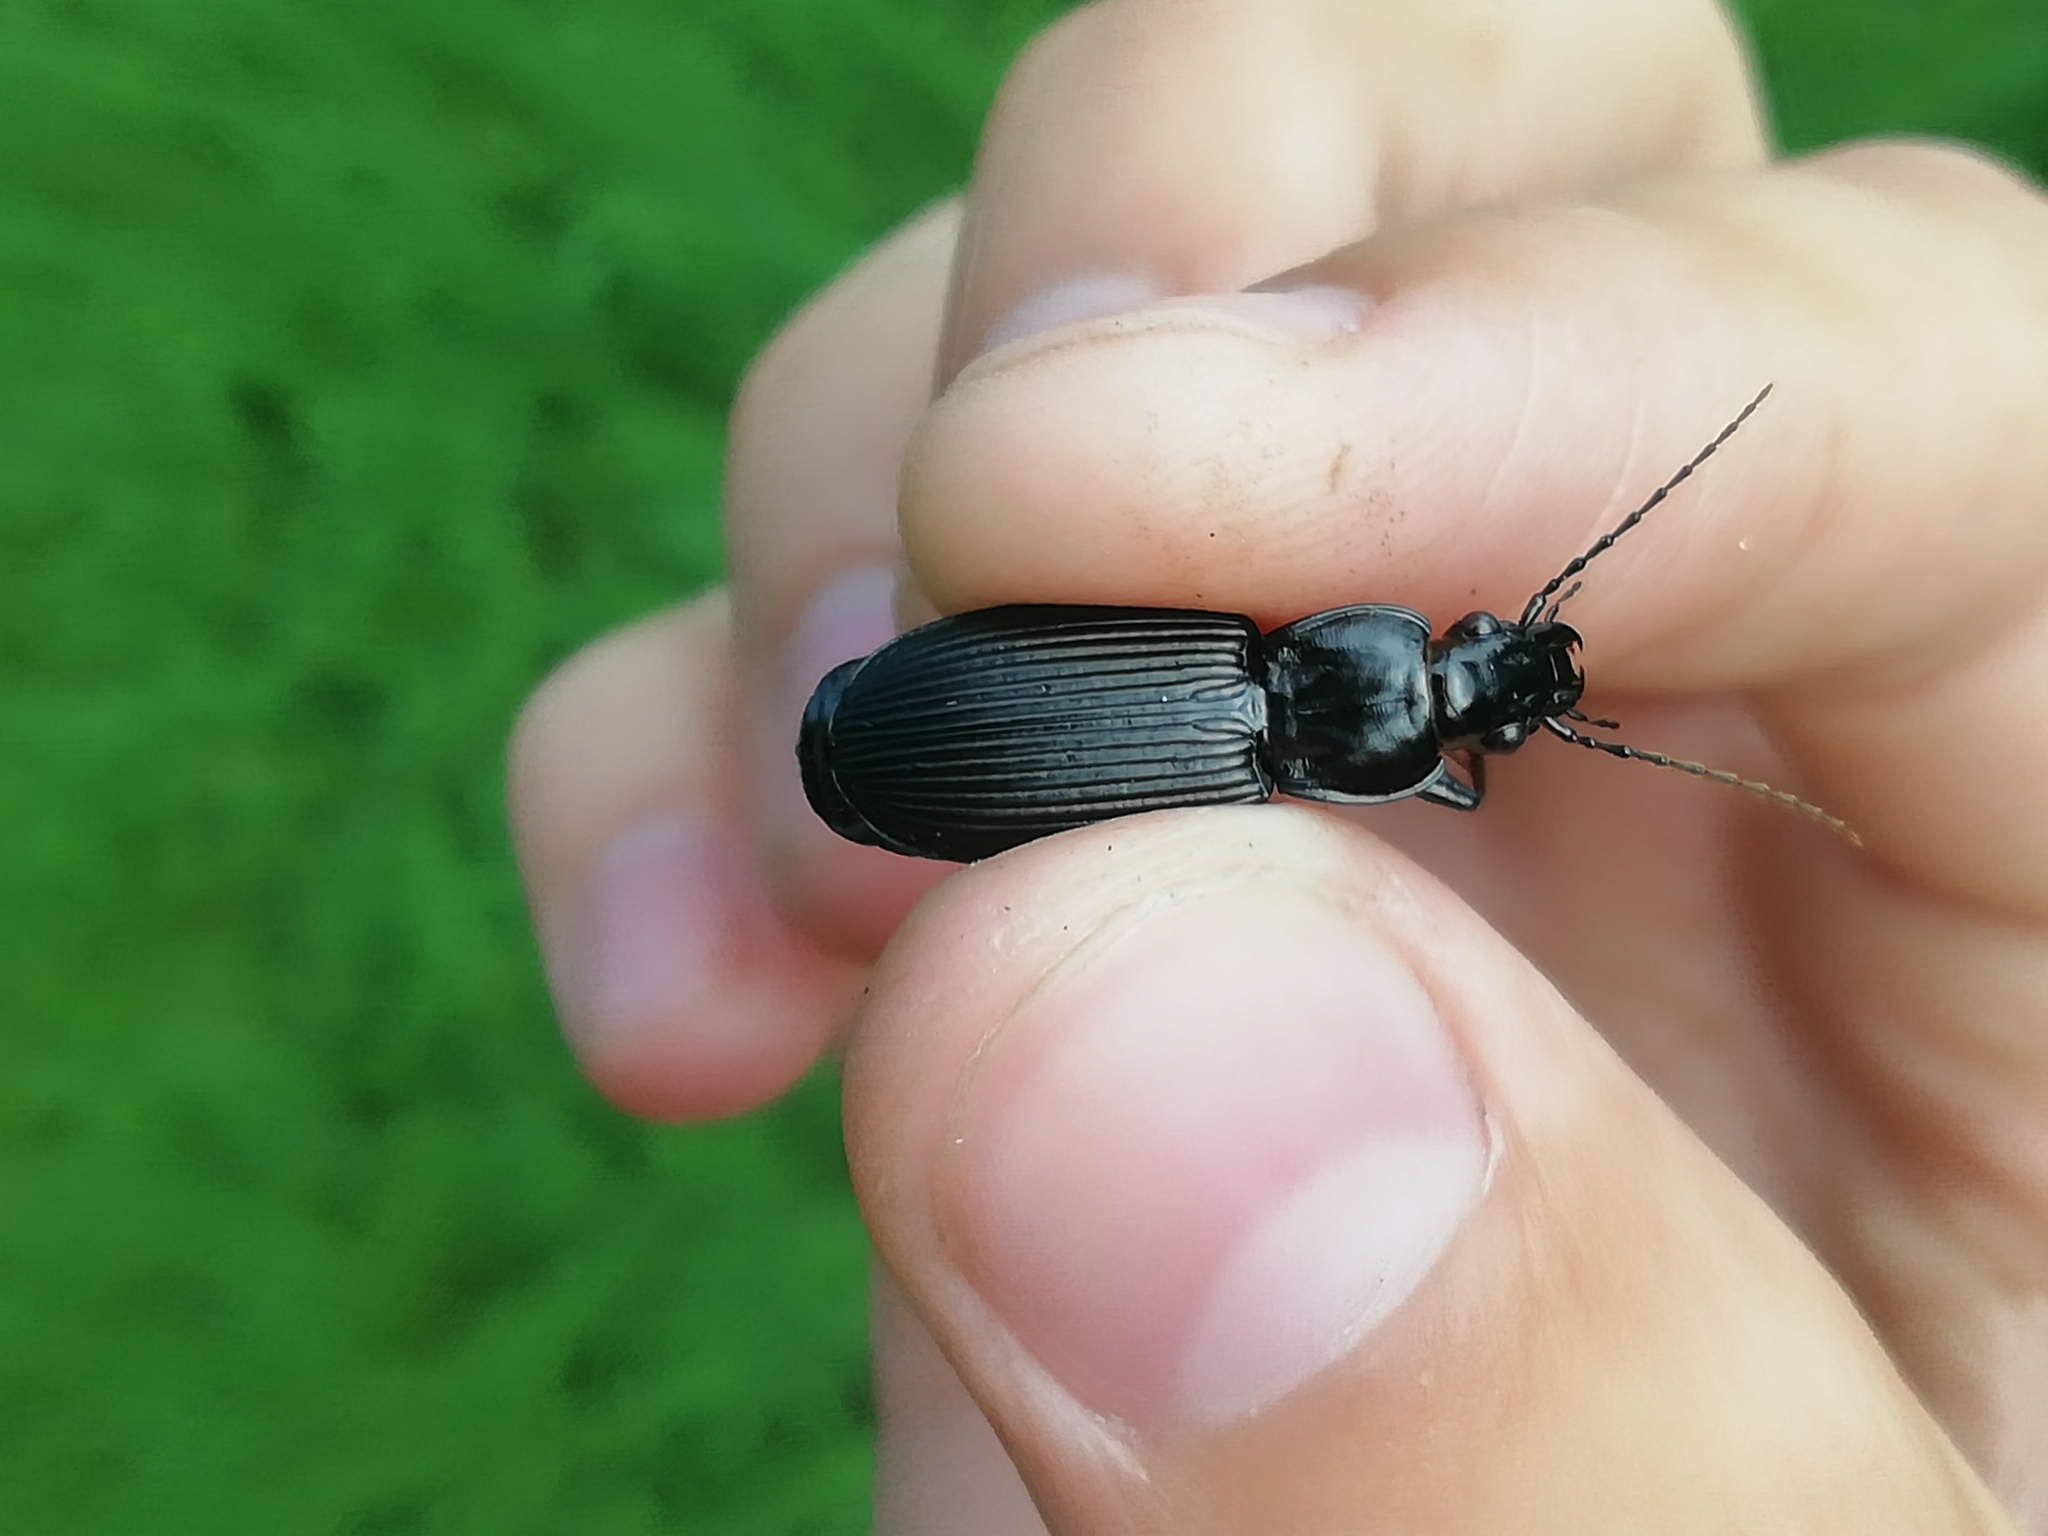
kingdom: Animalia
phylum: Arthropoda
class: Insecta
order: Coleoptera
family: Carabidae
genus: Pterostichus
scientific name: Pterostichus niger
